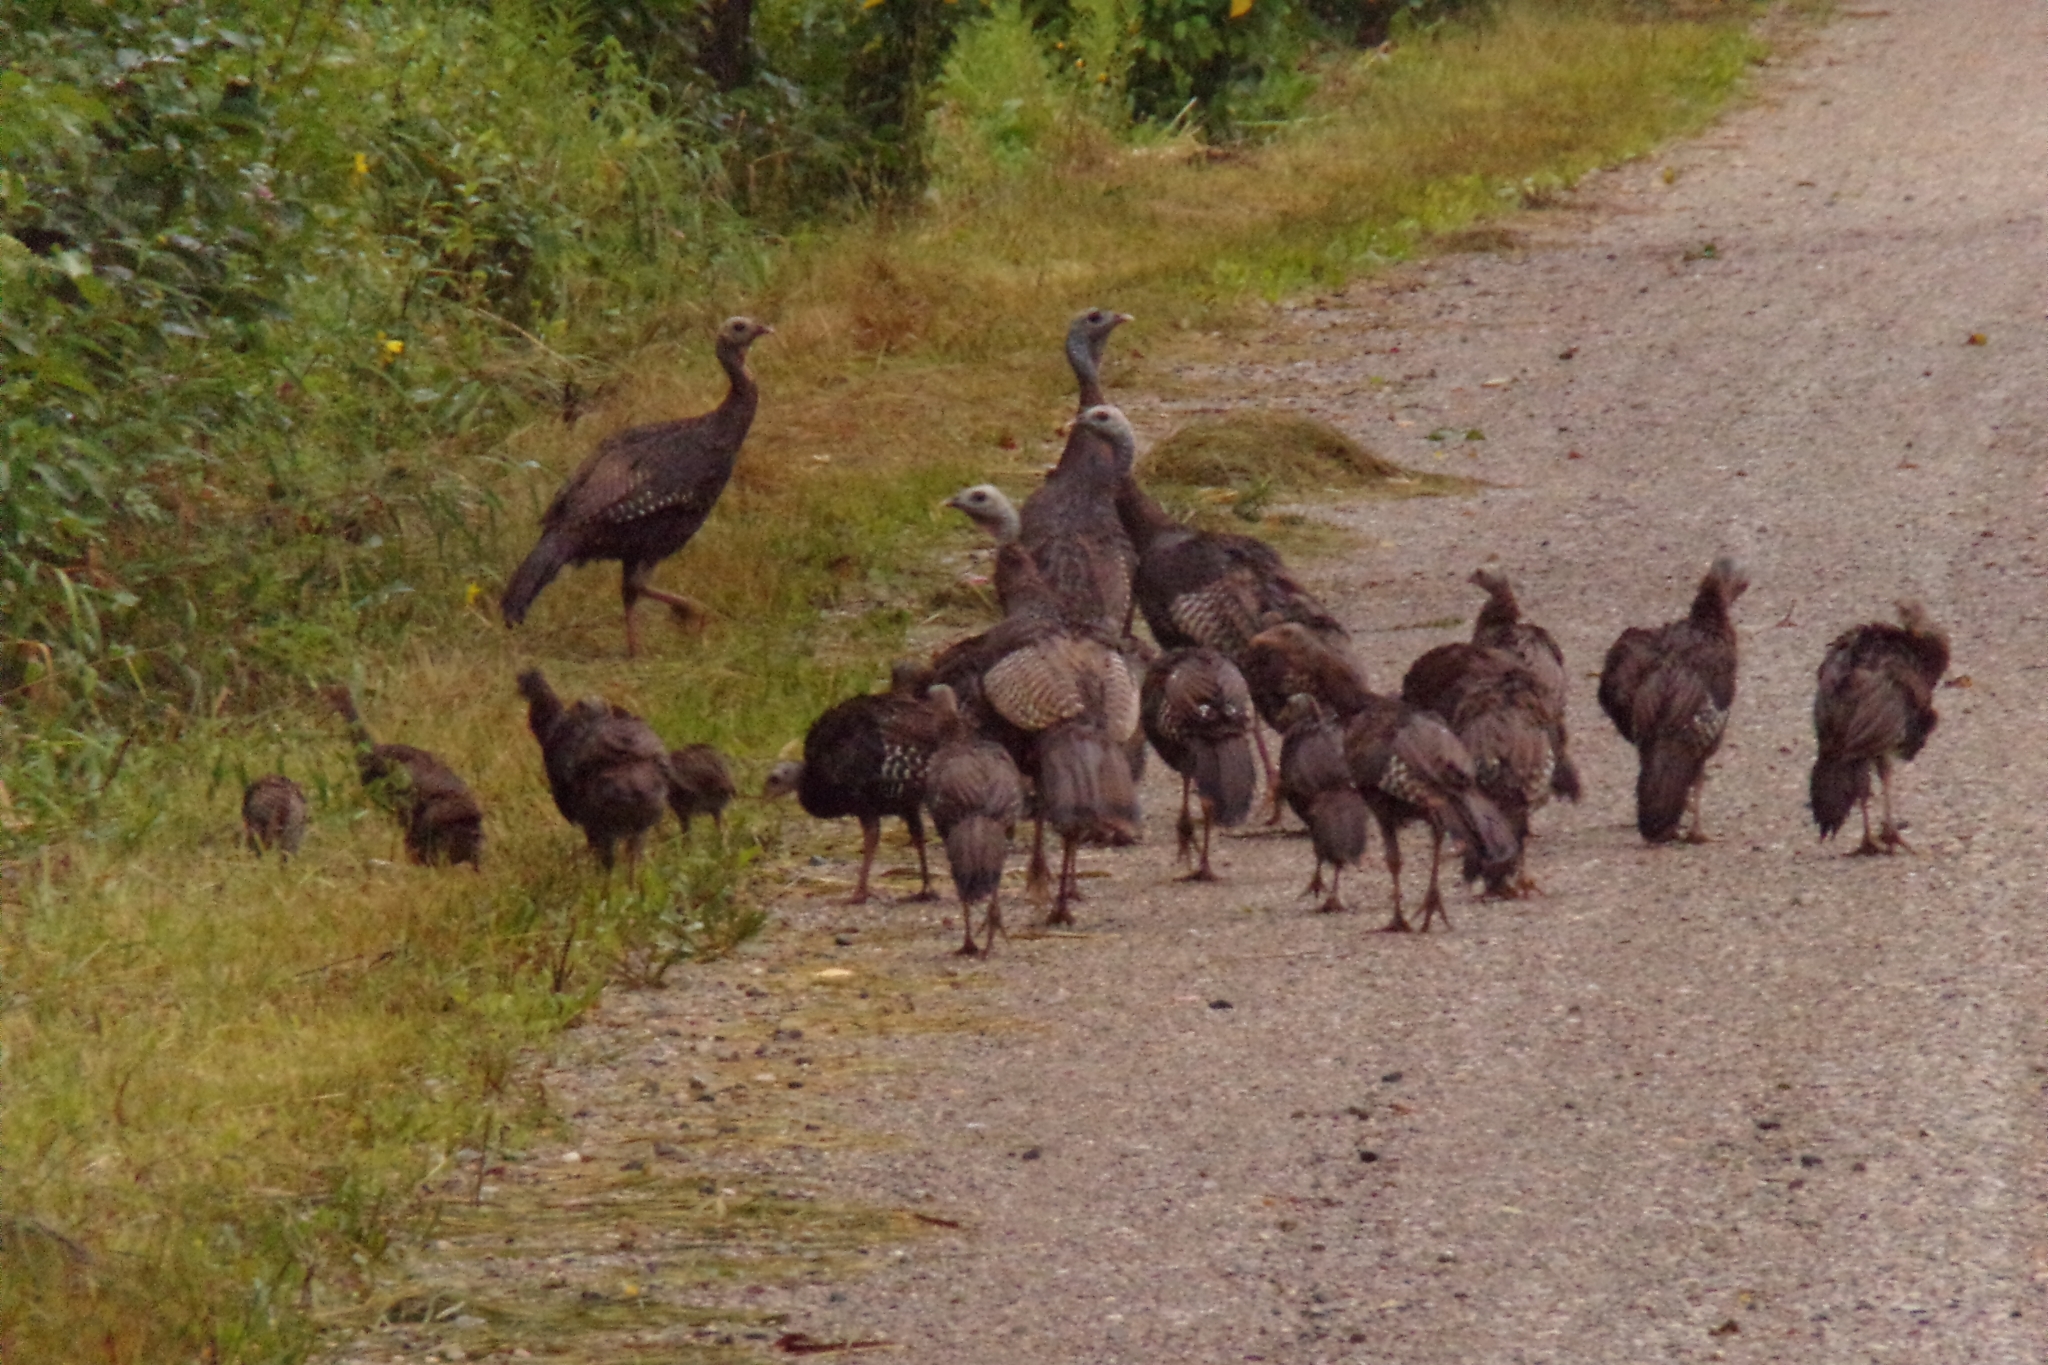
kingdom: Animalia
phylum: Chordata
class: Aves
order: Galliformes
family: Phasianidae
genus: Meleagris
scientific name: Meleagris gallopavo
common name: Wild turkey
